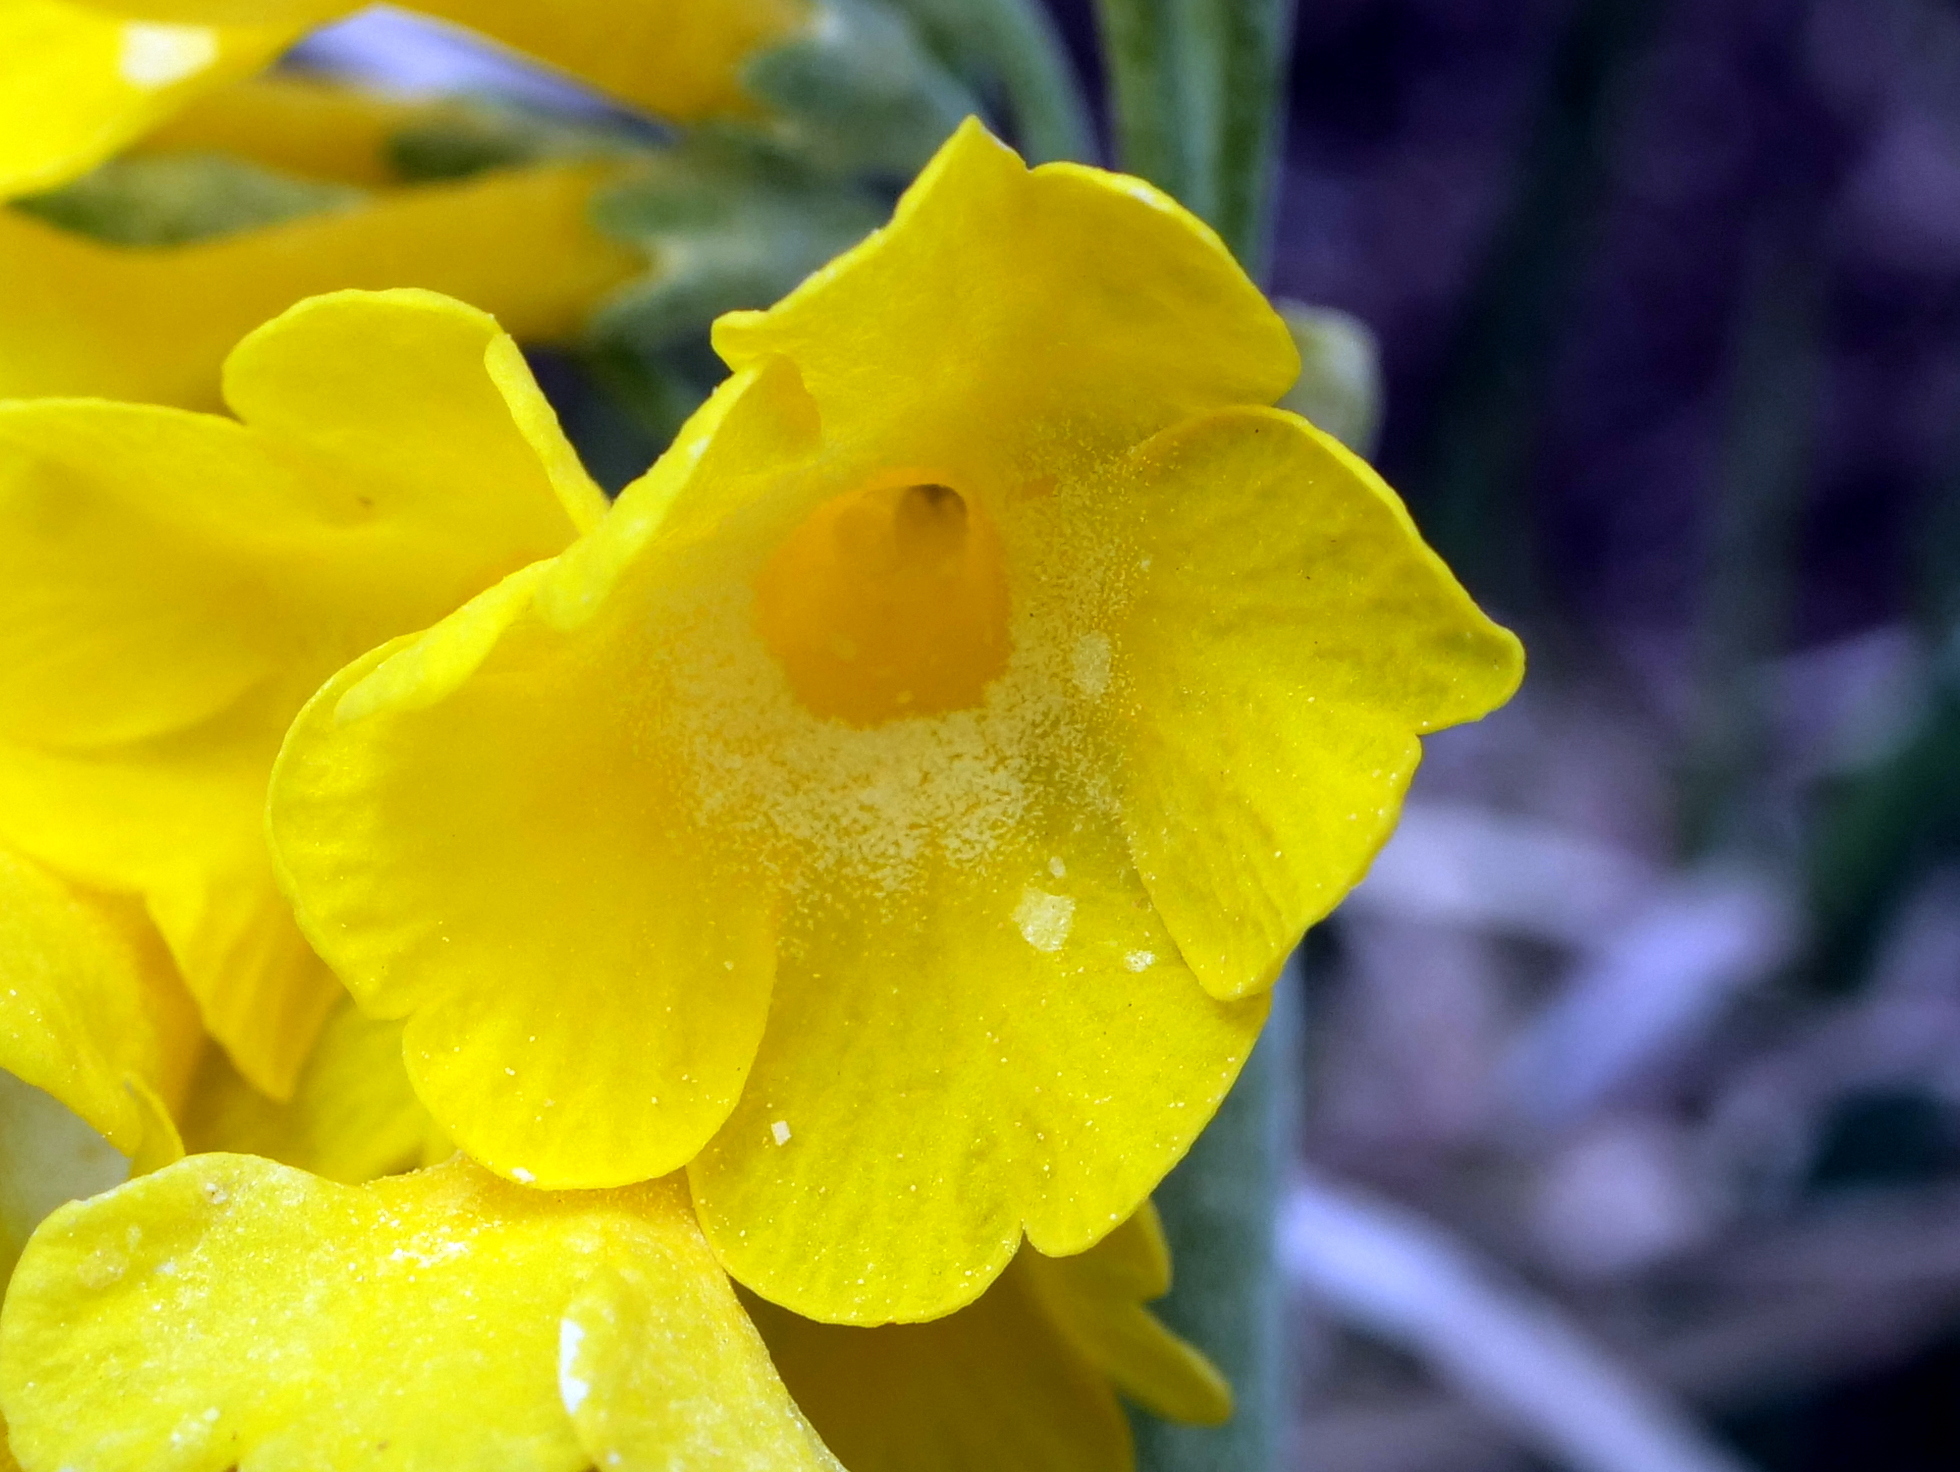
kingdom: Plantae
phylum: Tracheophyta
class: Magnoliopsida
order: Ericales
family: Primulaceae
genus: Primula
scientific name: Primula auricula
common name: Auricula
